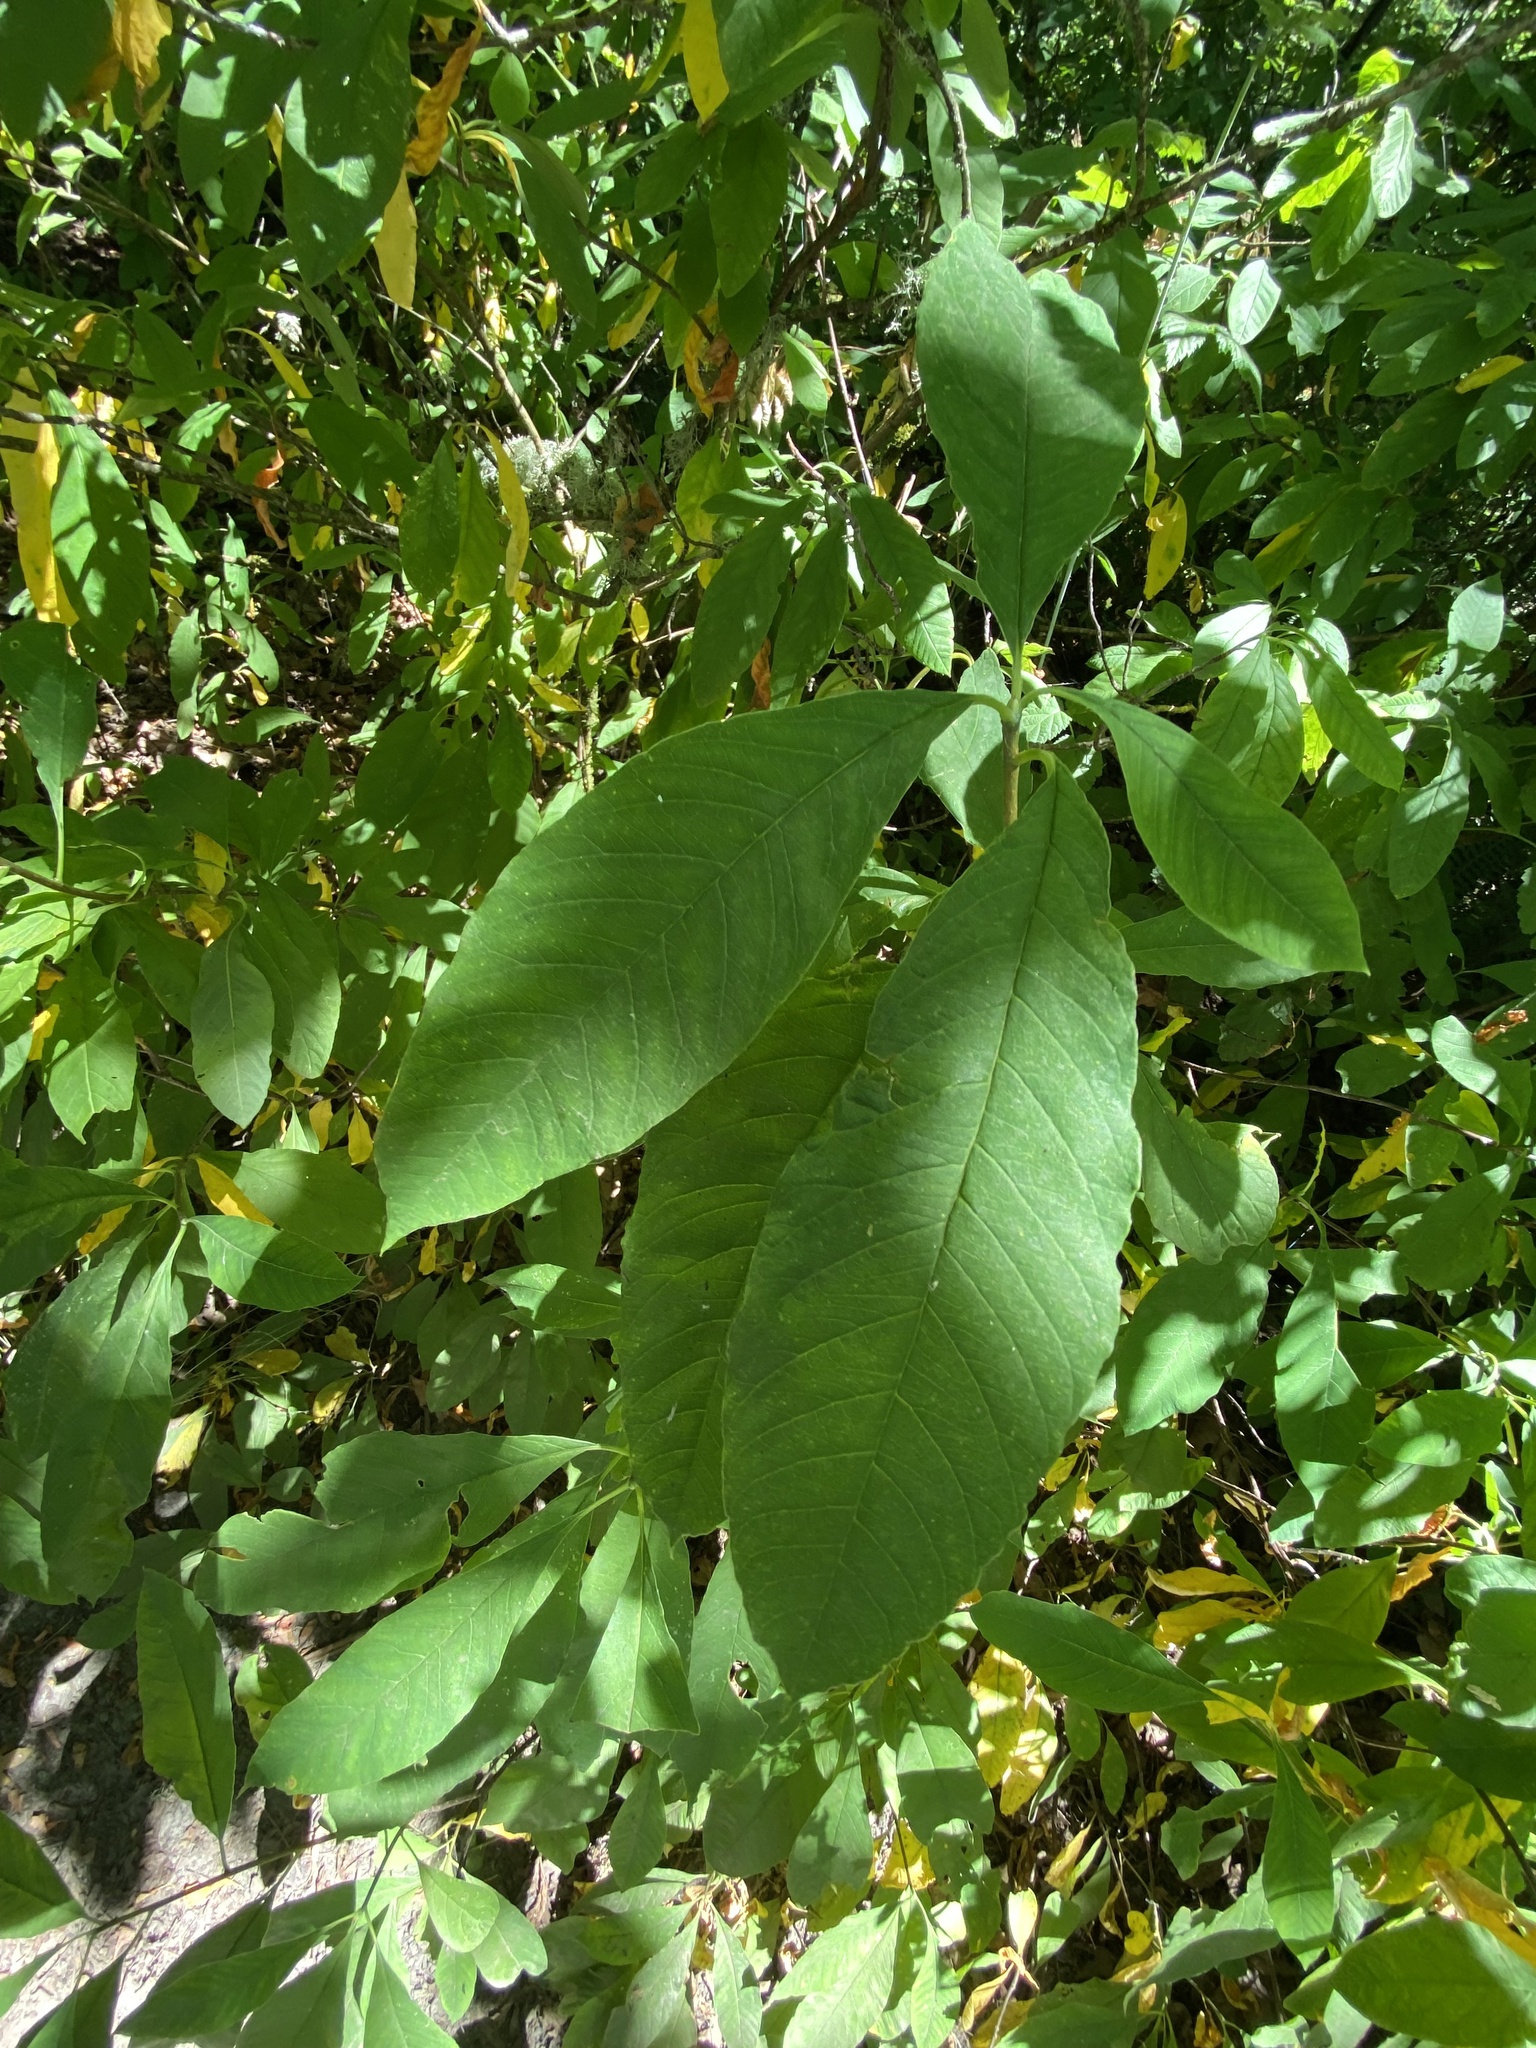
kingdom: Plantae
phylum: Tracheophyta
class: Magnoliopsida
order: Rosales
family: Rosaceae
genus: Oemleria
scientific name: Oemleria cerasiformis
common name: Osoberry
